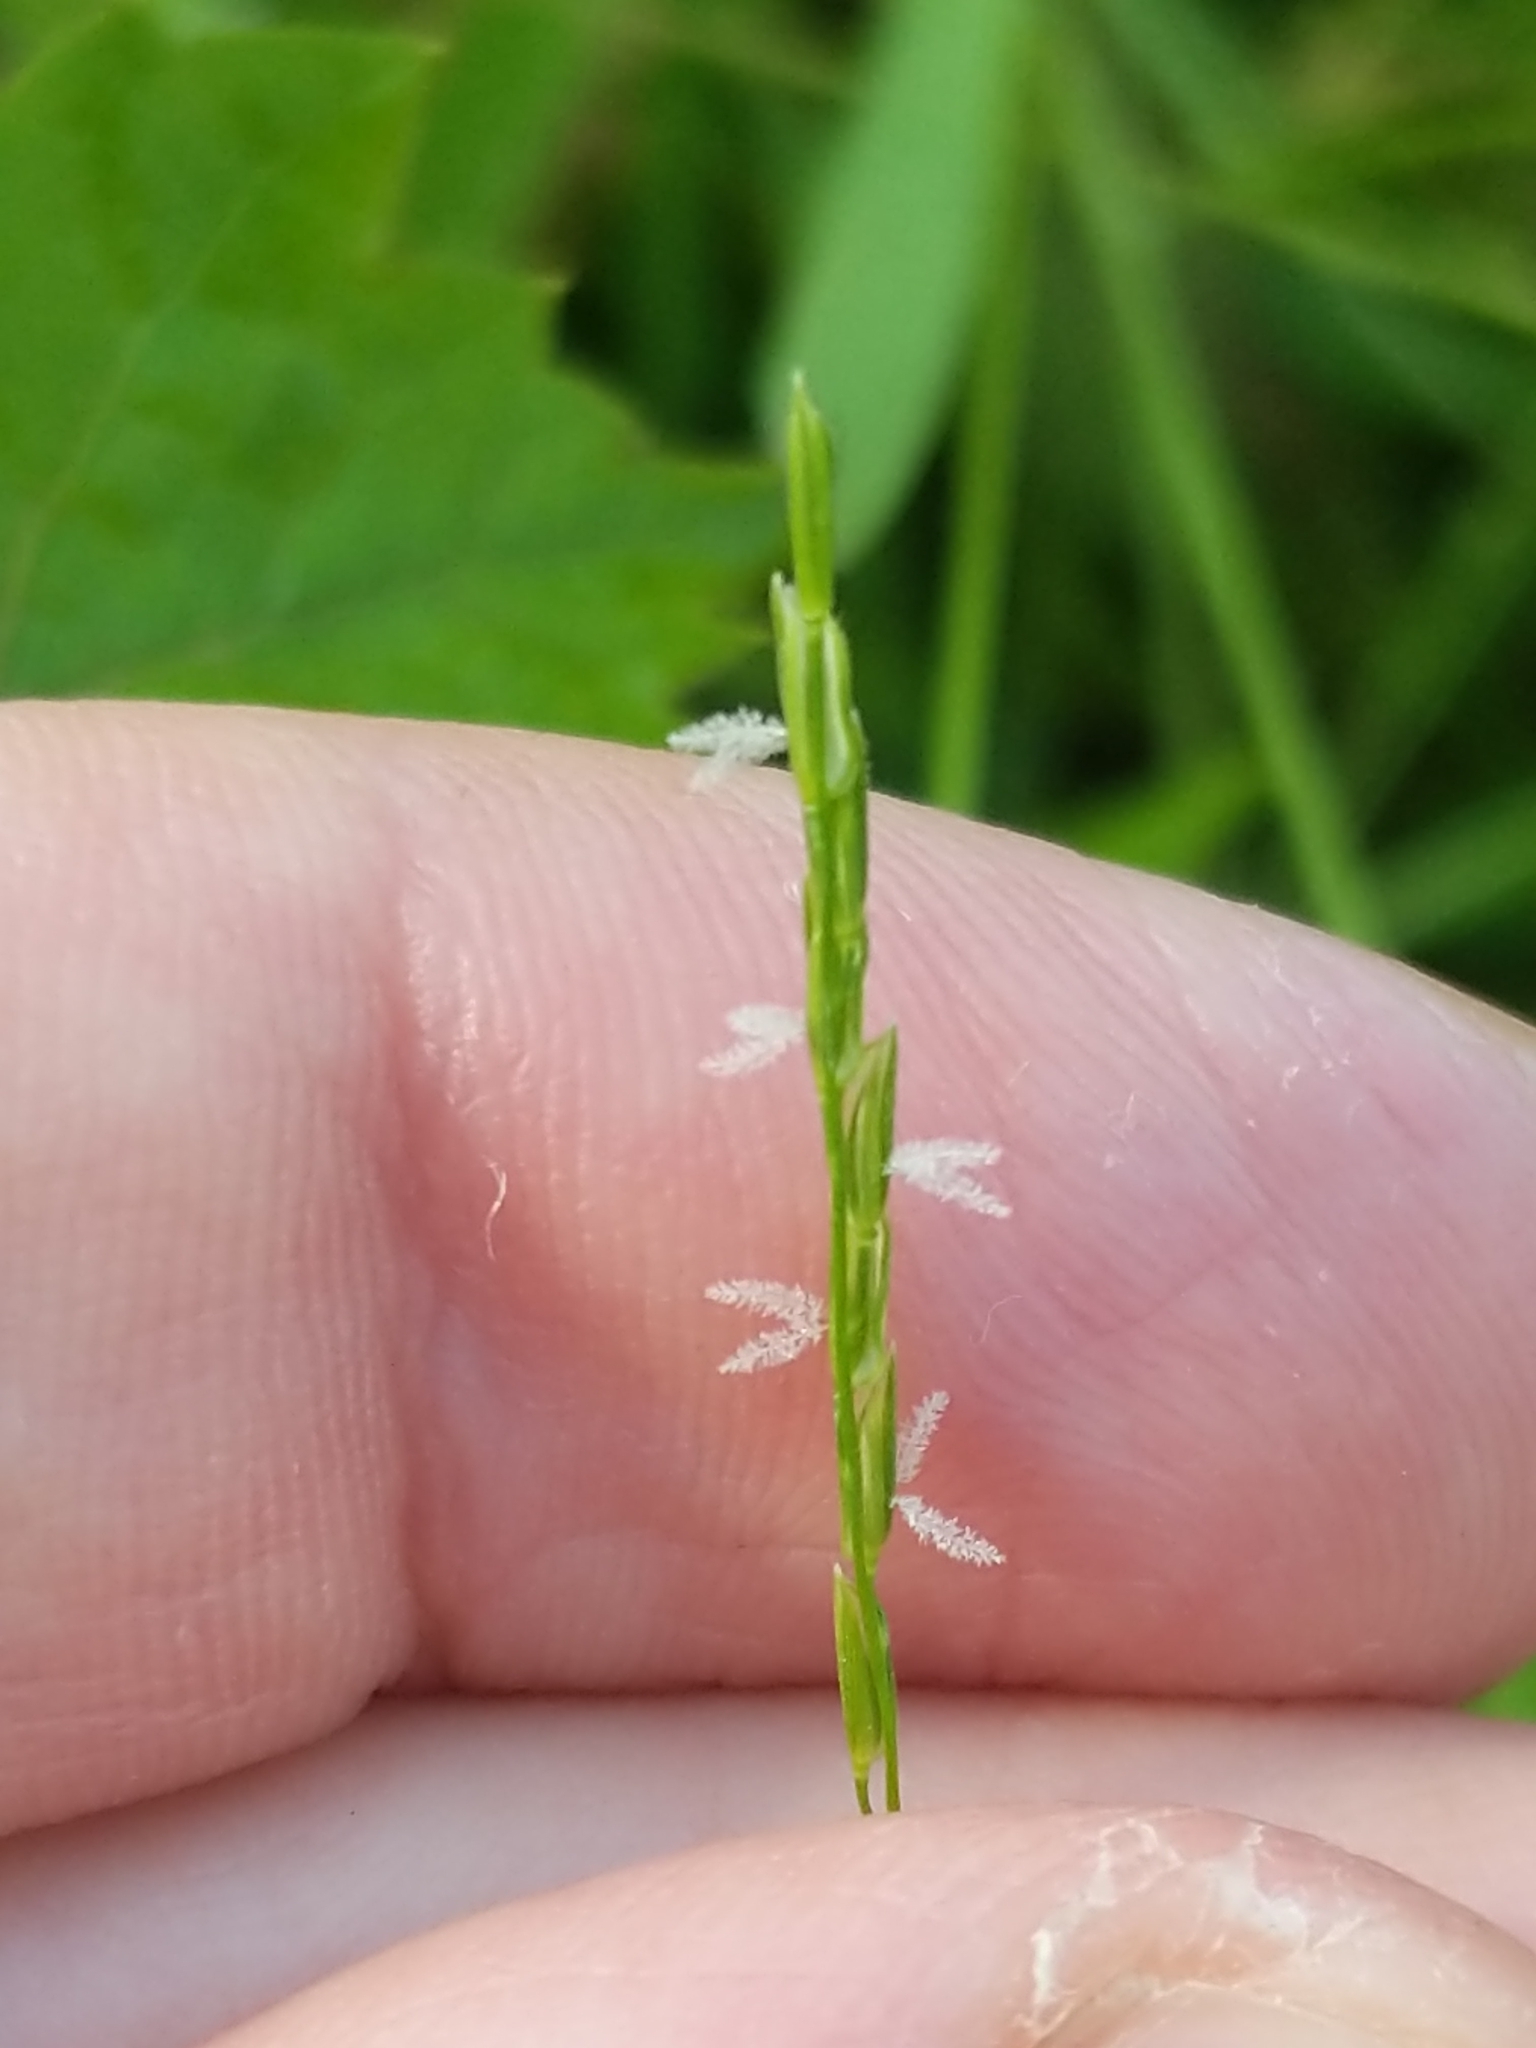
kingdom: Plantae
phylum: Tracheophyta
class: Liliopsida
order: Poales
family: Poaceae
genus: Leersia
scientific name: Leersia virginica
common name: White cutgrass
